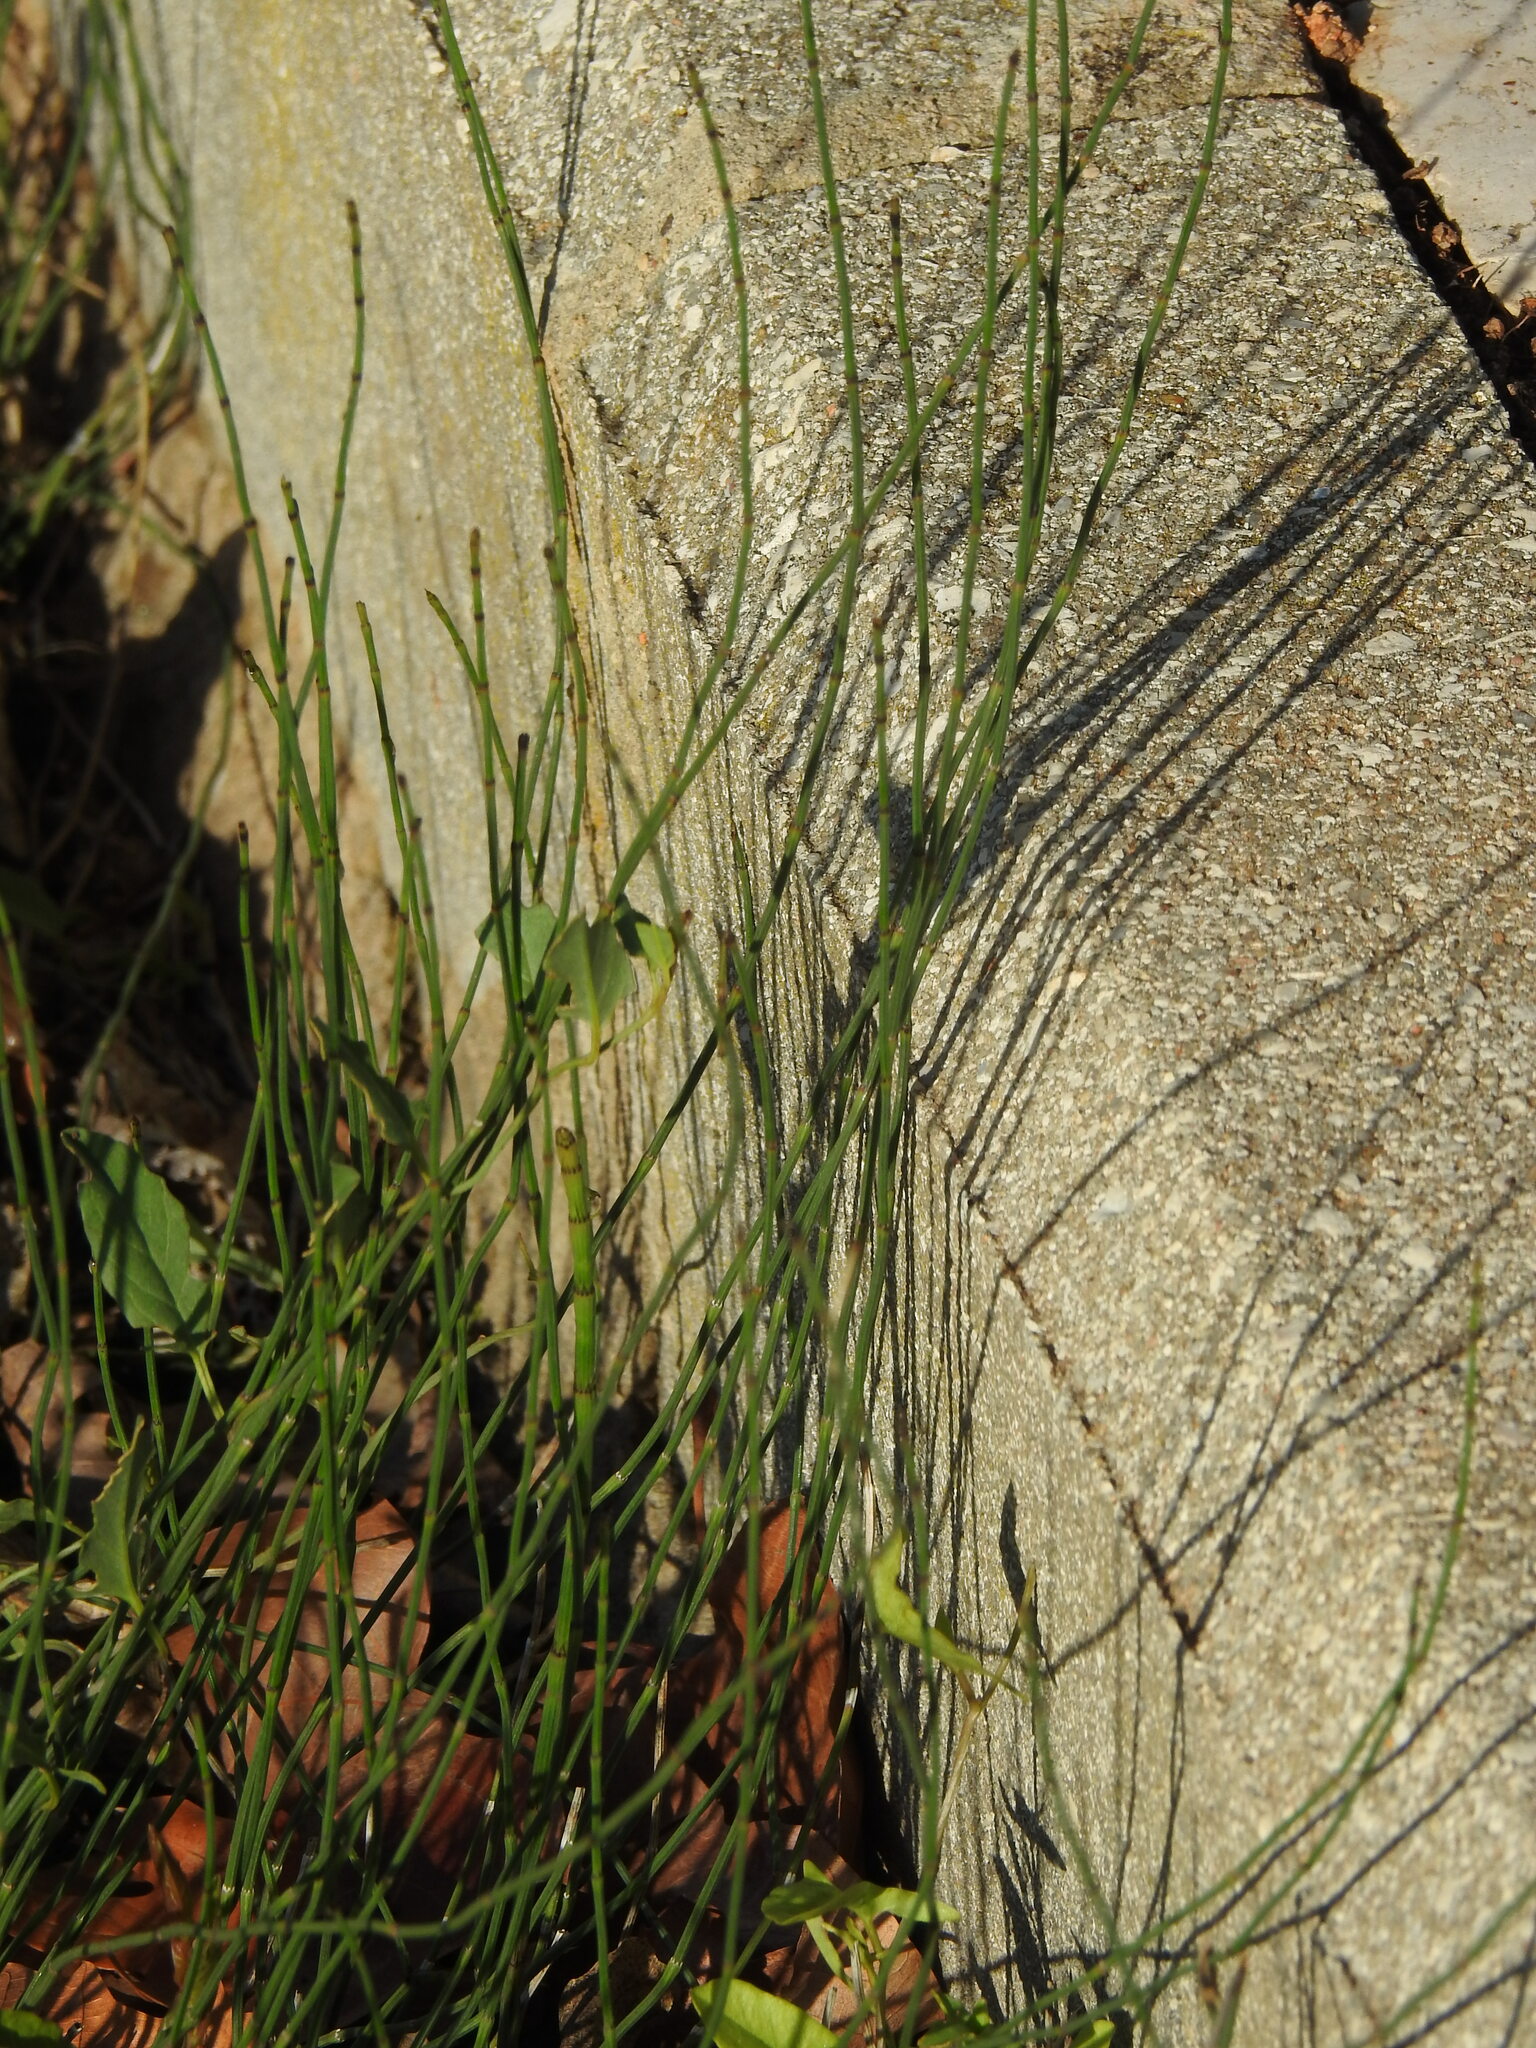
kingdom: Plantae
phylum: Tracheophyta
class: Polypodiopsida
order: Equisetales
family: Equisetaceae
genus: Equisetum
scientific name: Equisetum ramosissimum
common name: Branched horsetail
